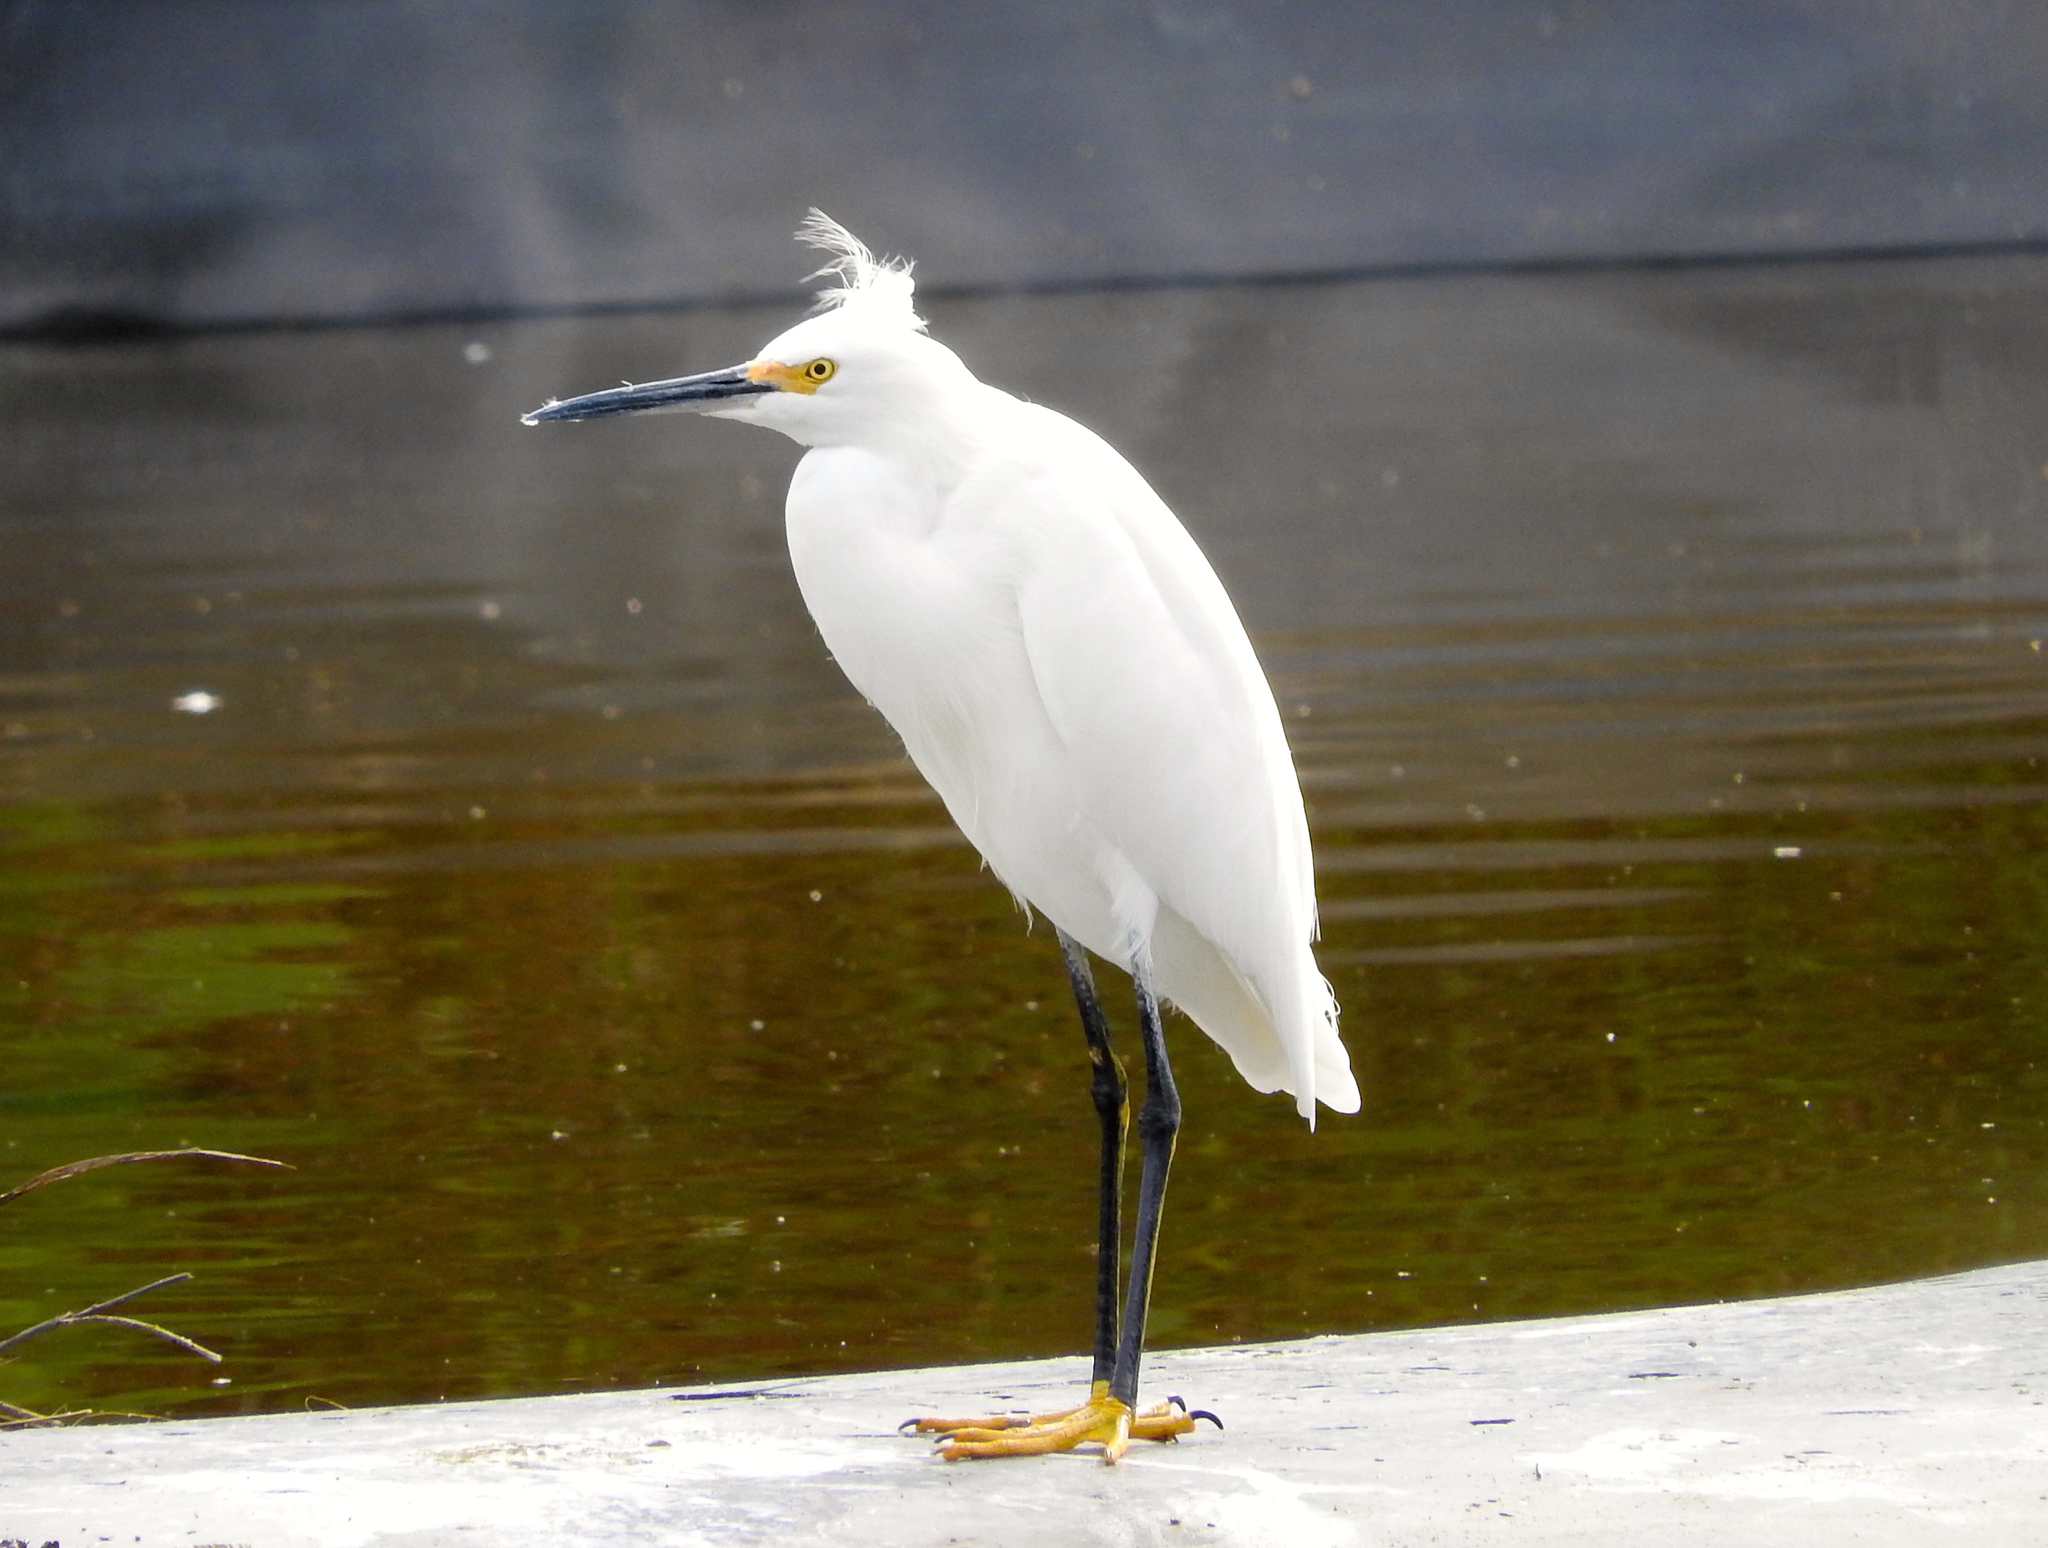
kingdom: Animalia
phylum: Chordata
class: Aves
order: Pelecaniformes
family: Ardeidae
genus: Egretta
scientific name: Egretta thula
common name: Snowy egret
